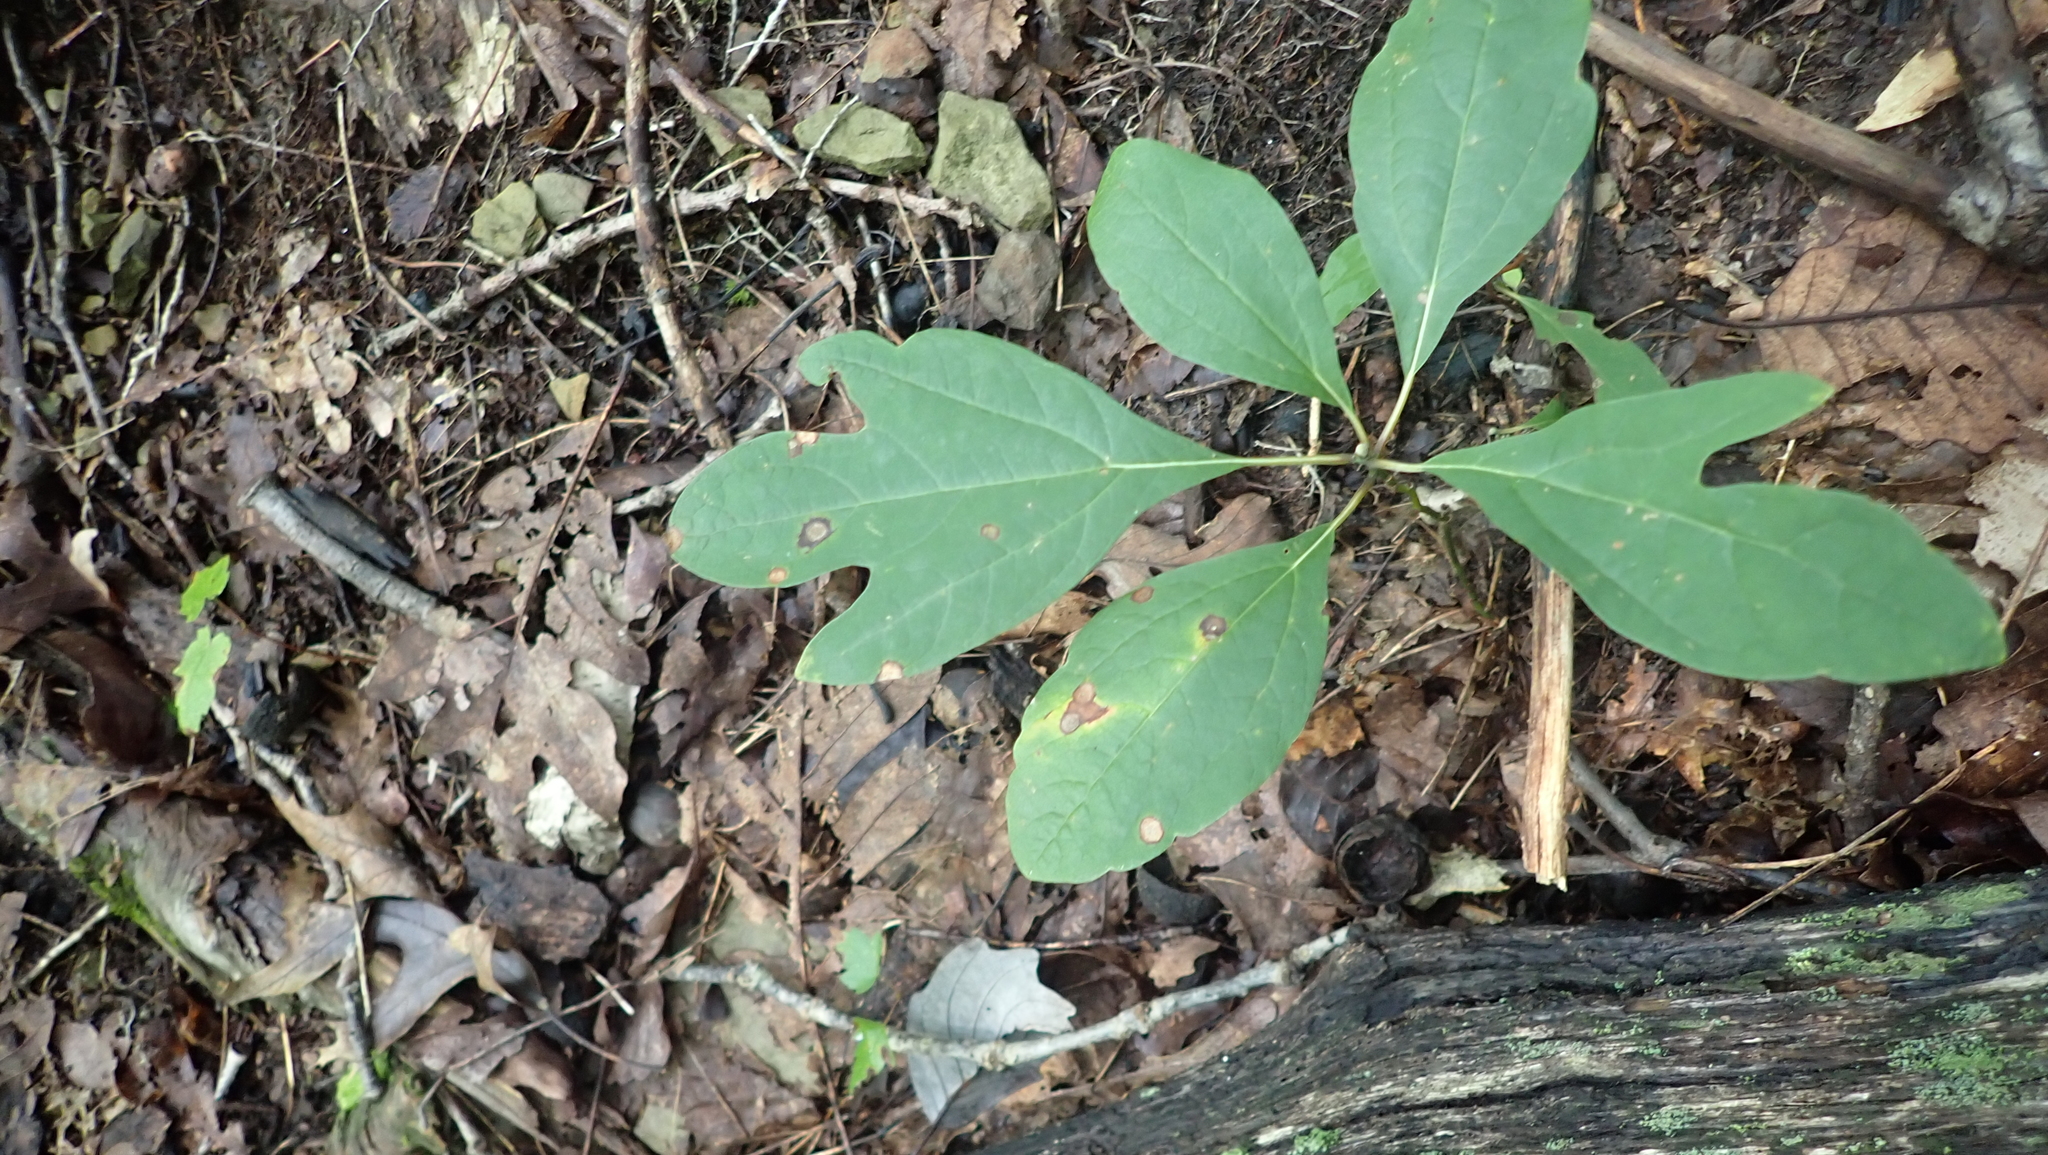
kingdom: Plantae
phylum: Tracheophyta
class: Magnoliopsida
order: Laurales
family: Lauraceae
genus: Sassafras
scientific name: Sassafras albidum
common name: Sassafras
